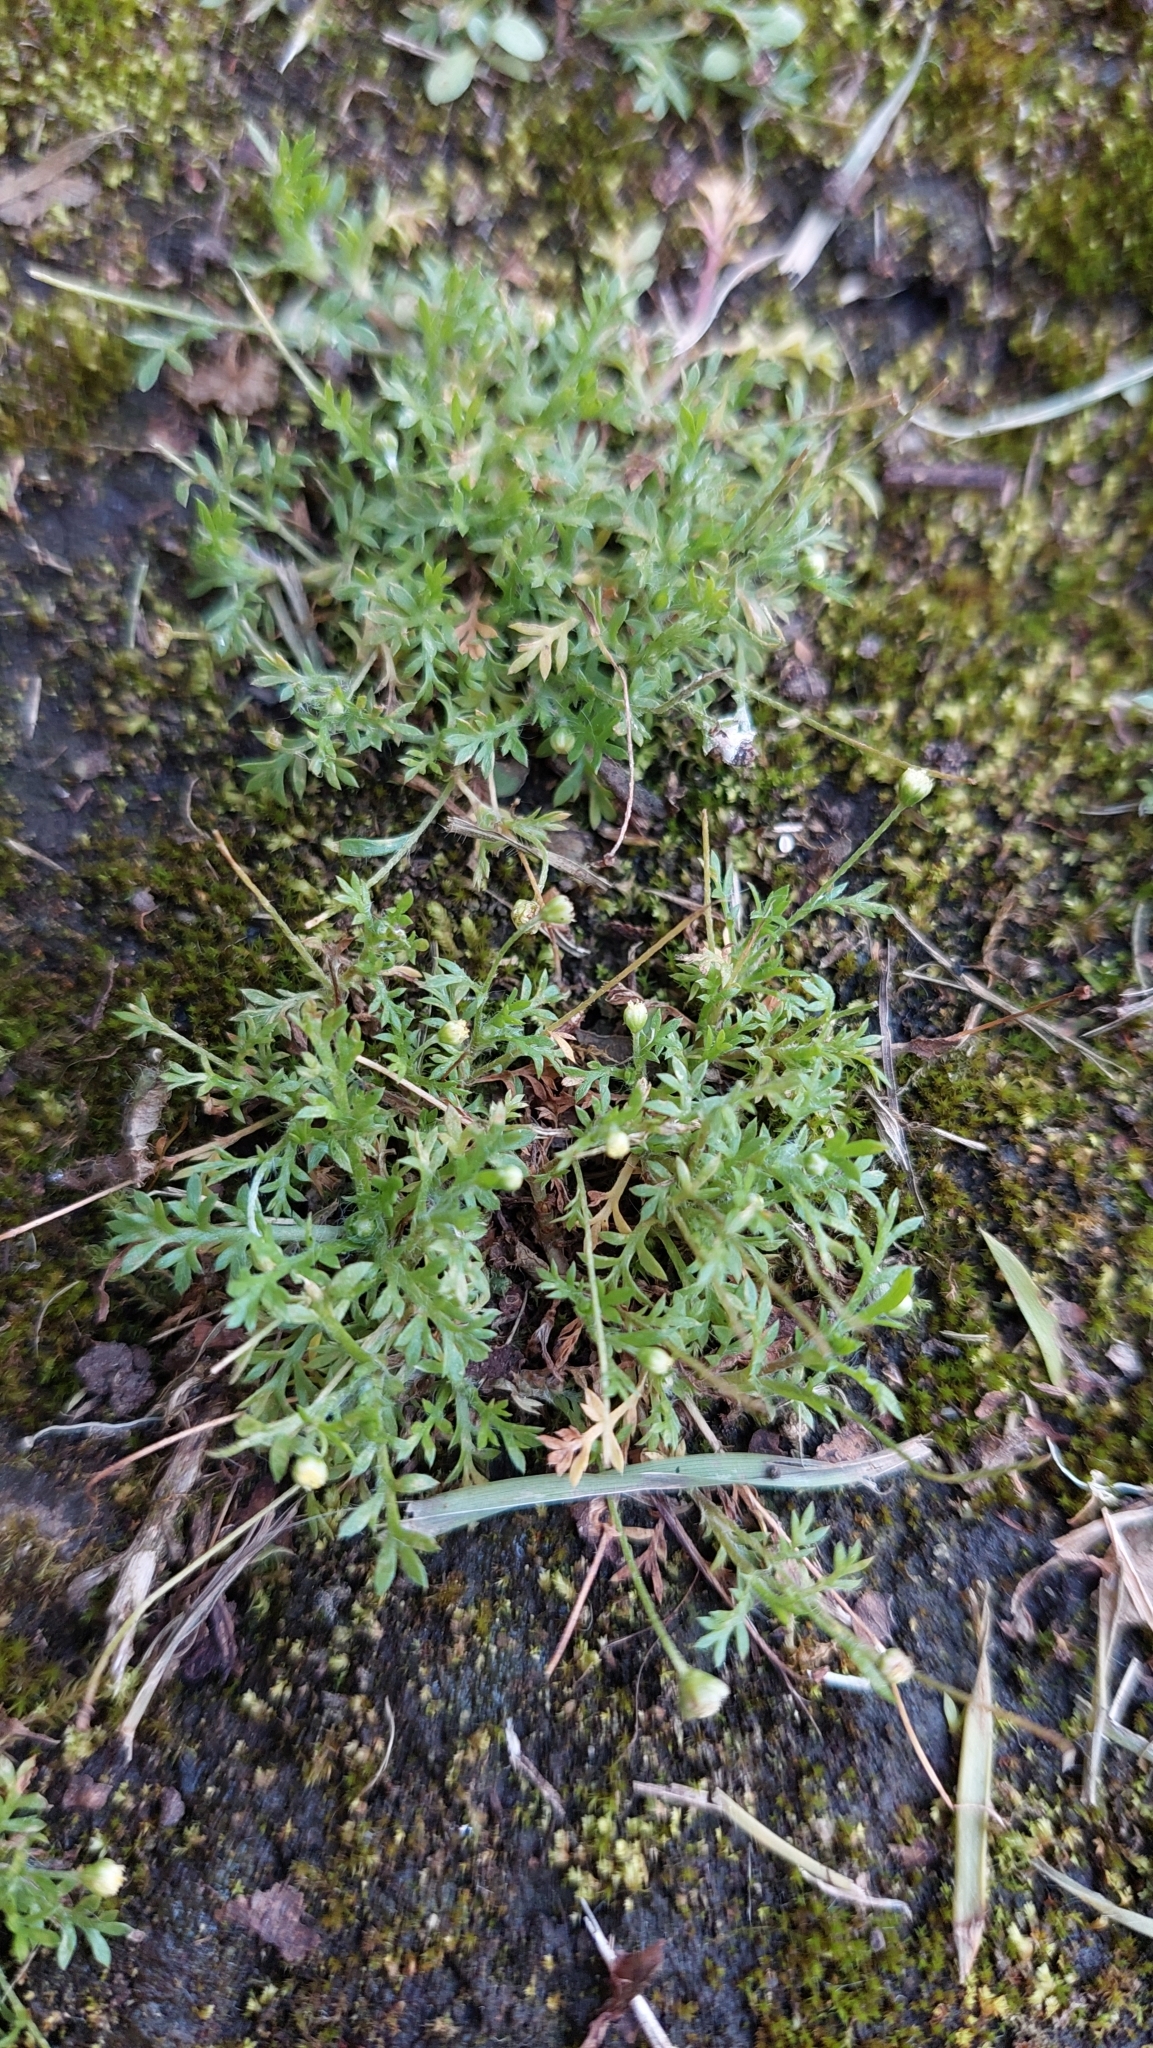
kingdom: Plantae
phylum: Tracheophyta
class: Magnoliopsida
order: Asterales
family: Asteraceae
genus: Cotula
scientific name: Cotula australis
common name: Australian waterbuttons
